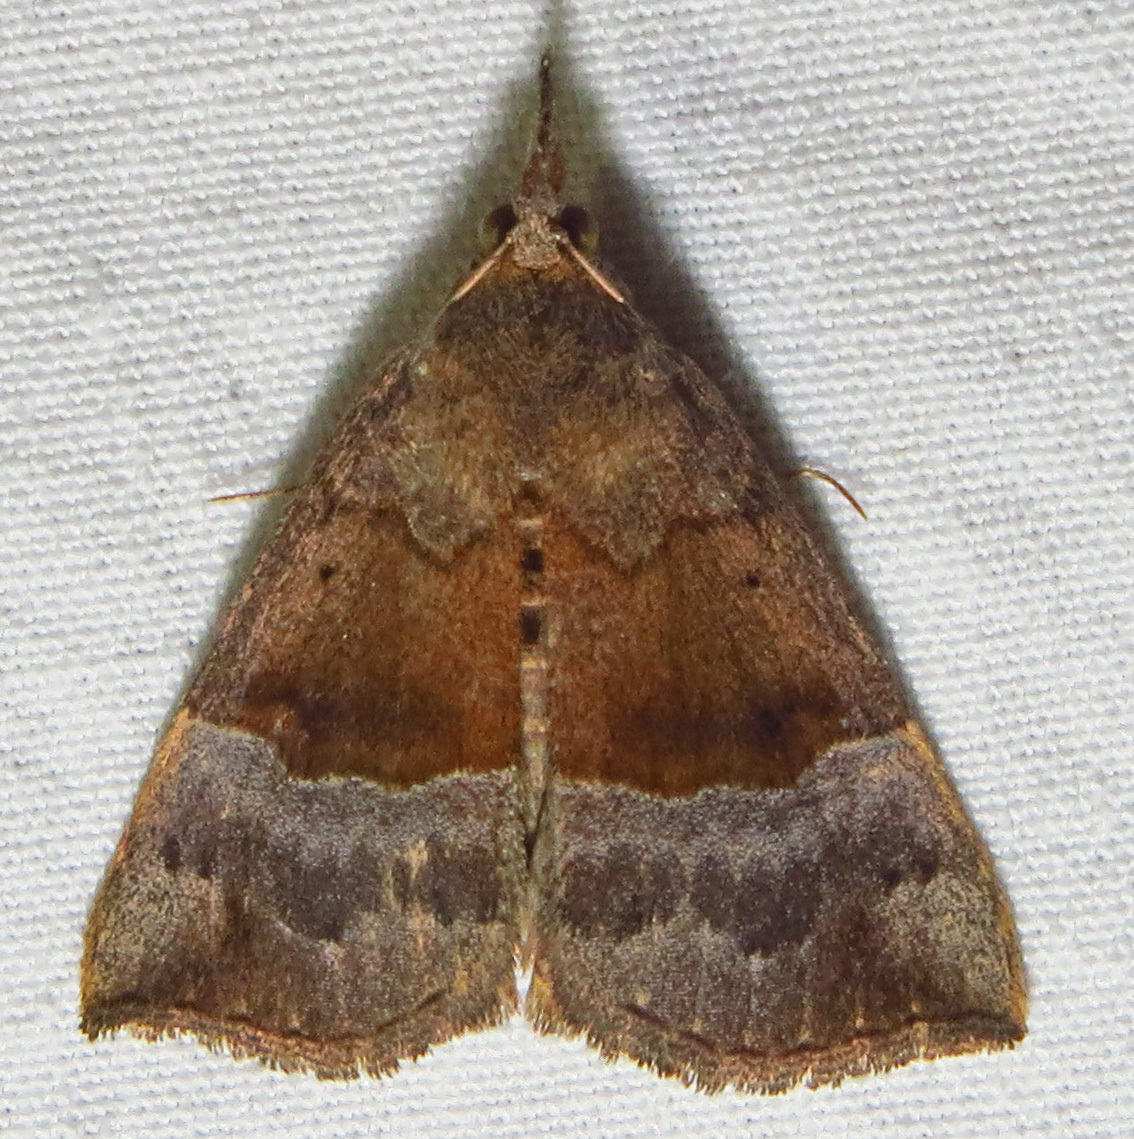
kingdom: Animalia
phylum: Arthropoda
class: Insecta
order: Lepidoptera
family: Erebidae
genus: Hypena
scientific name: Hypena madefactalis
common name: Gray-edged snout
